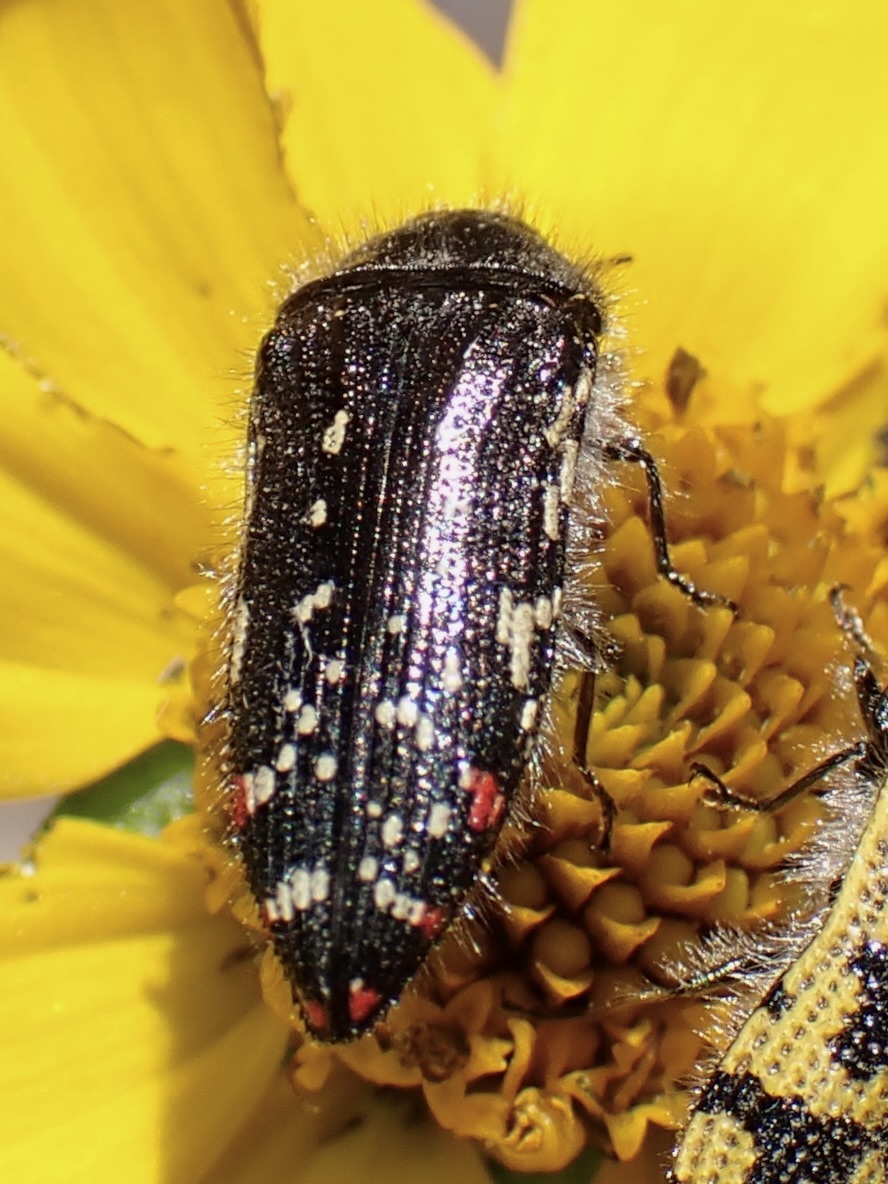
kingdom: Animalia
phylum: Arthropoda
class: Insecta
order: Coleoptera
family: Buprestidae
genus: Acmaeodera
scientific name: Acmaeodera rubronotata
